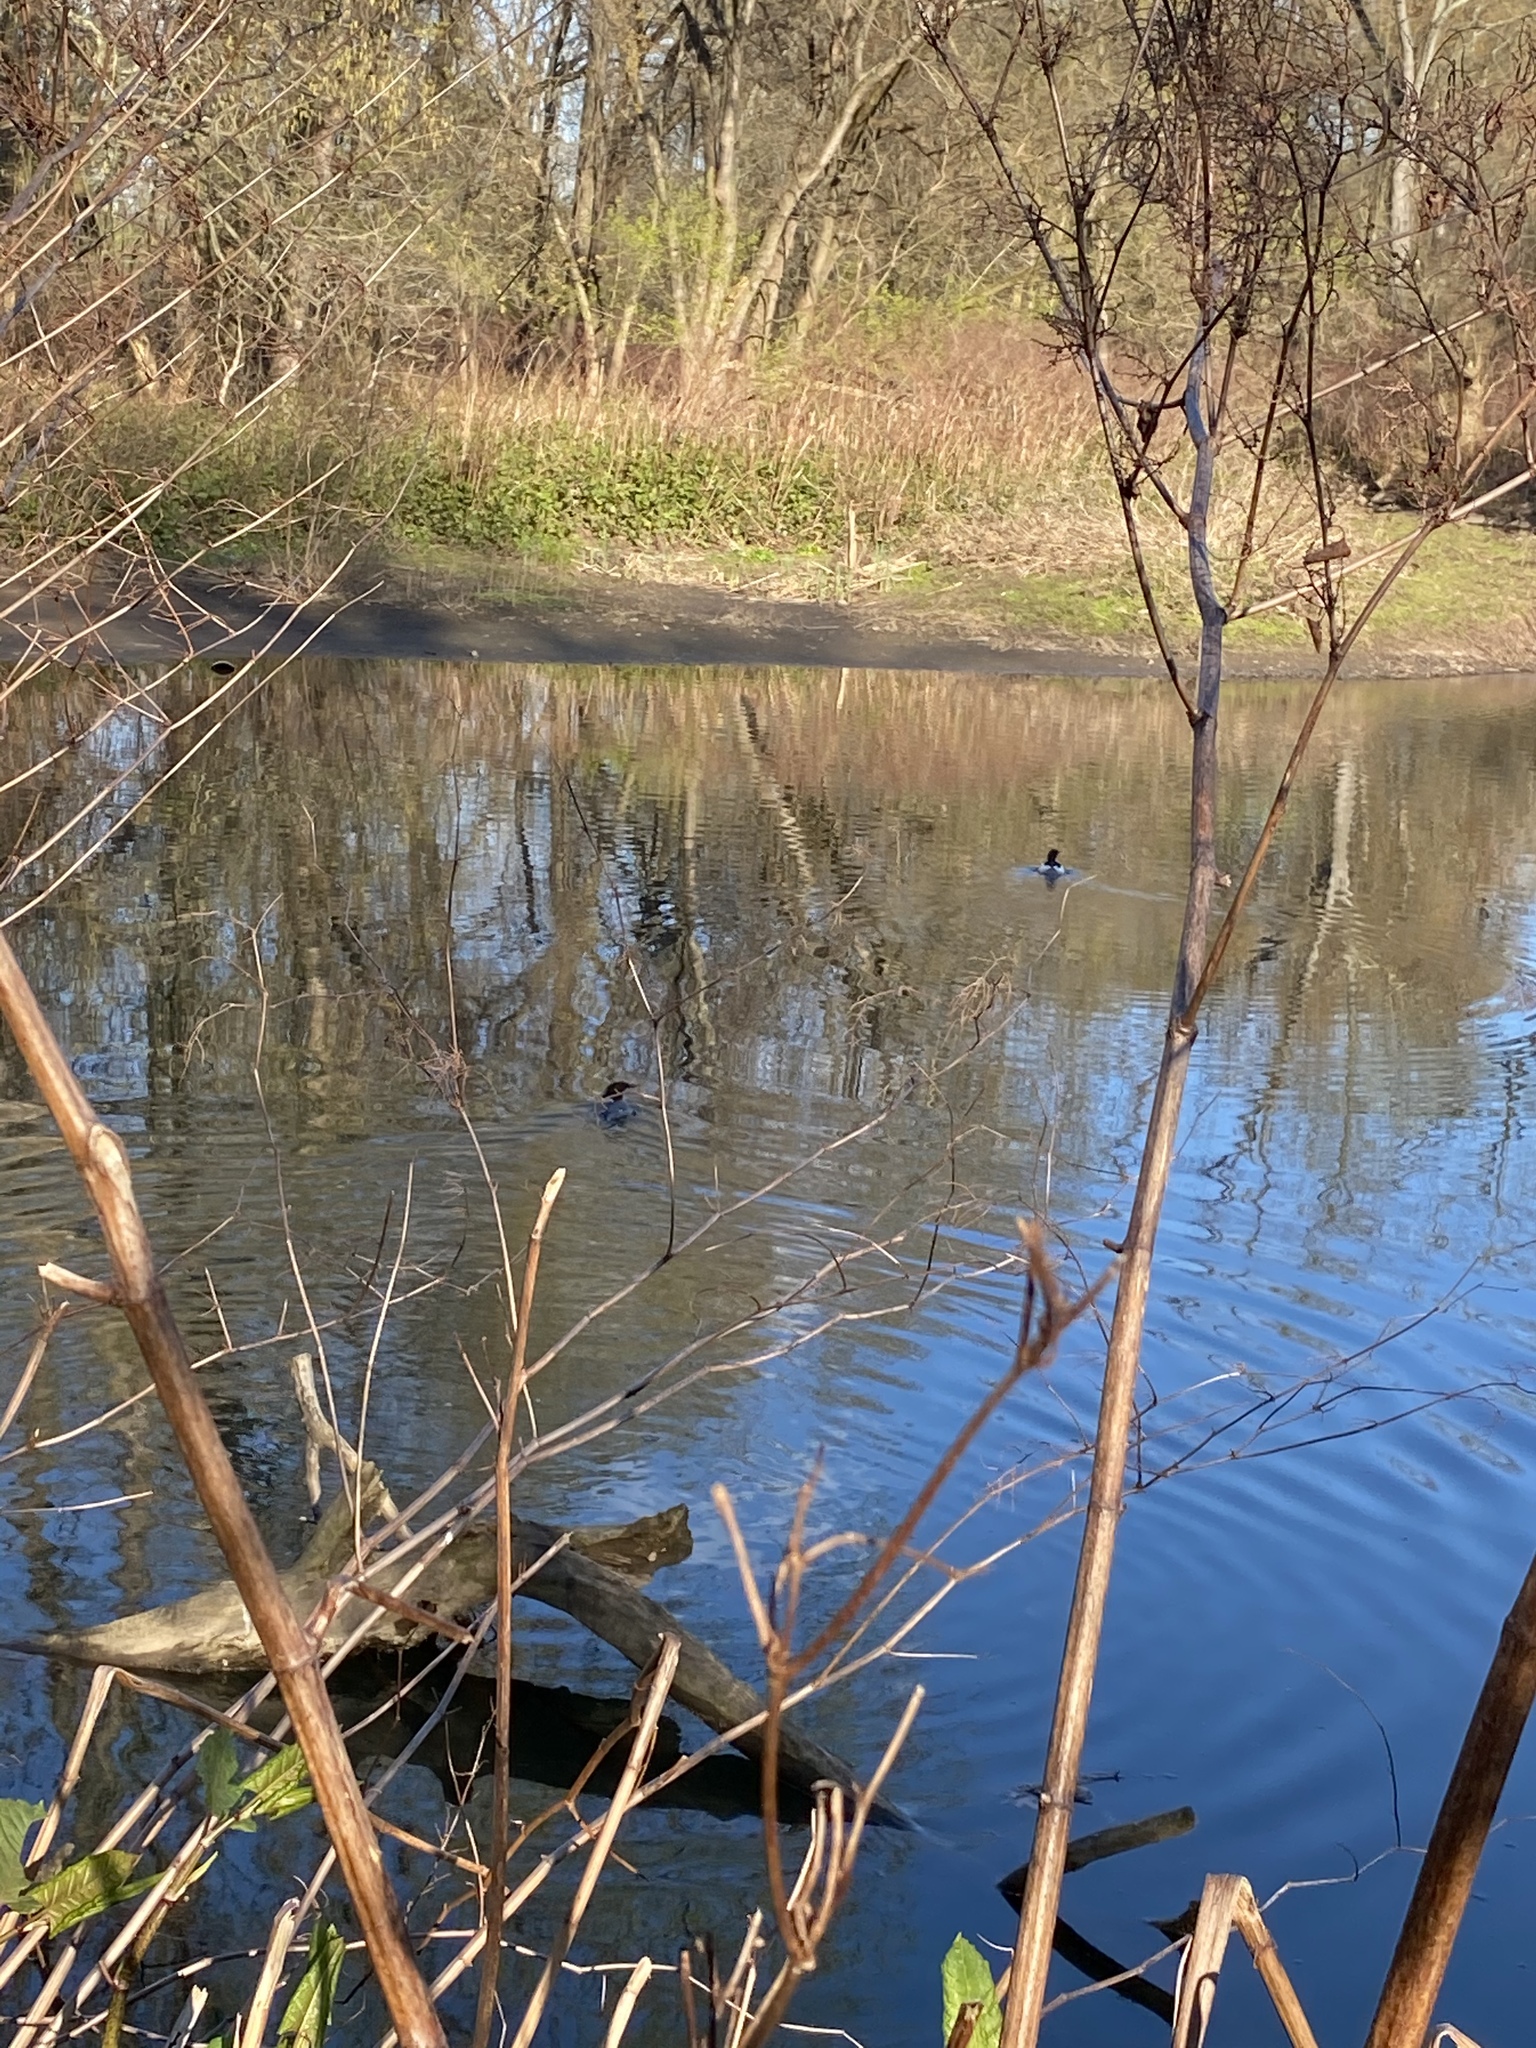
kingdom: Animalia
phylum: Chordata
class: Aves
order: Anseriformes
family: Anatidae
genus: Mergus
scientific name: Mergus merganser
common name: Common merganser
